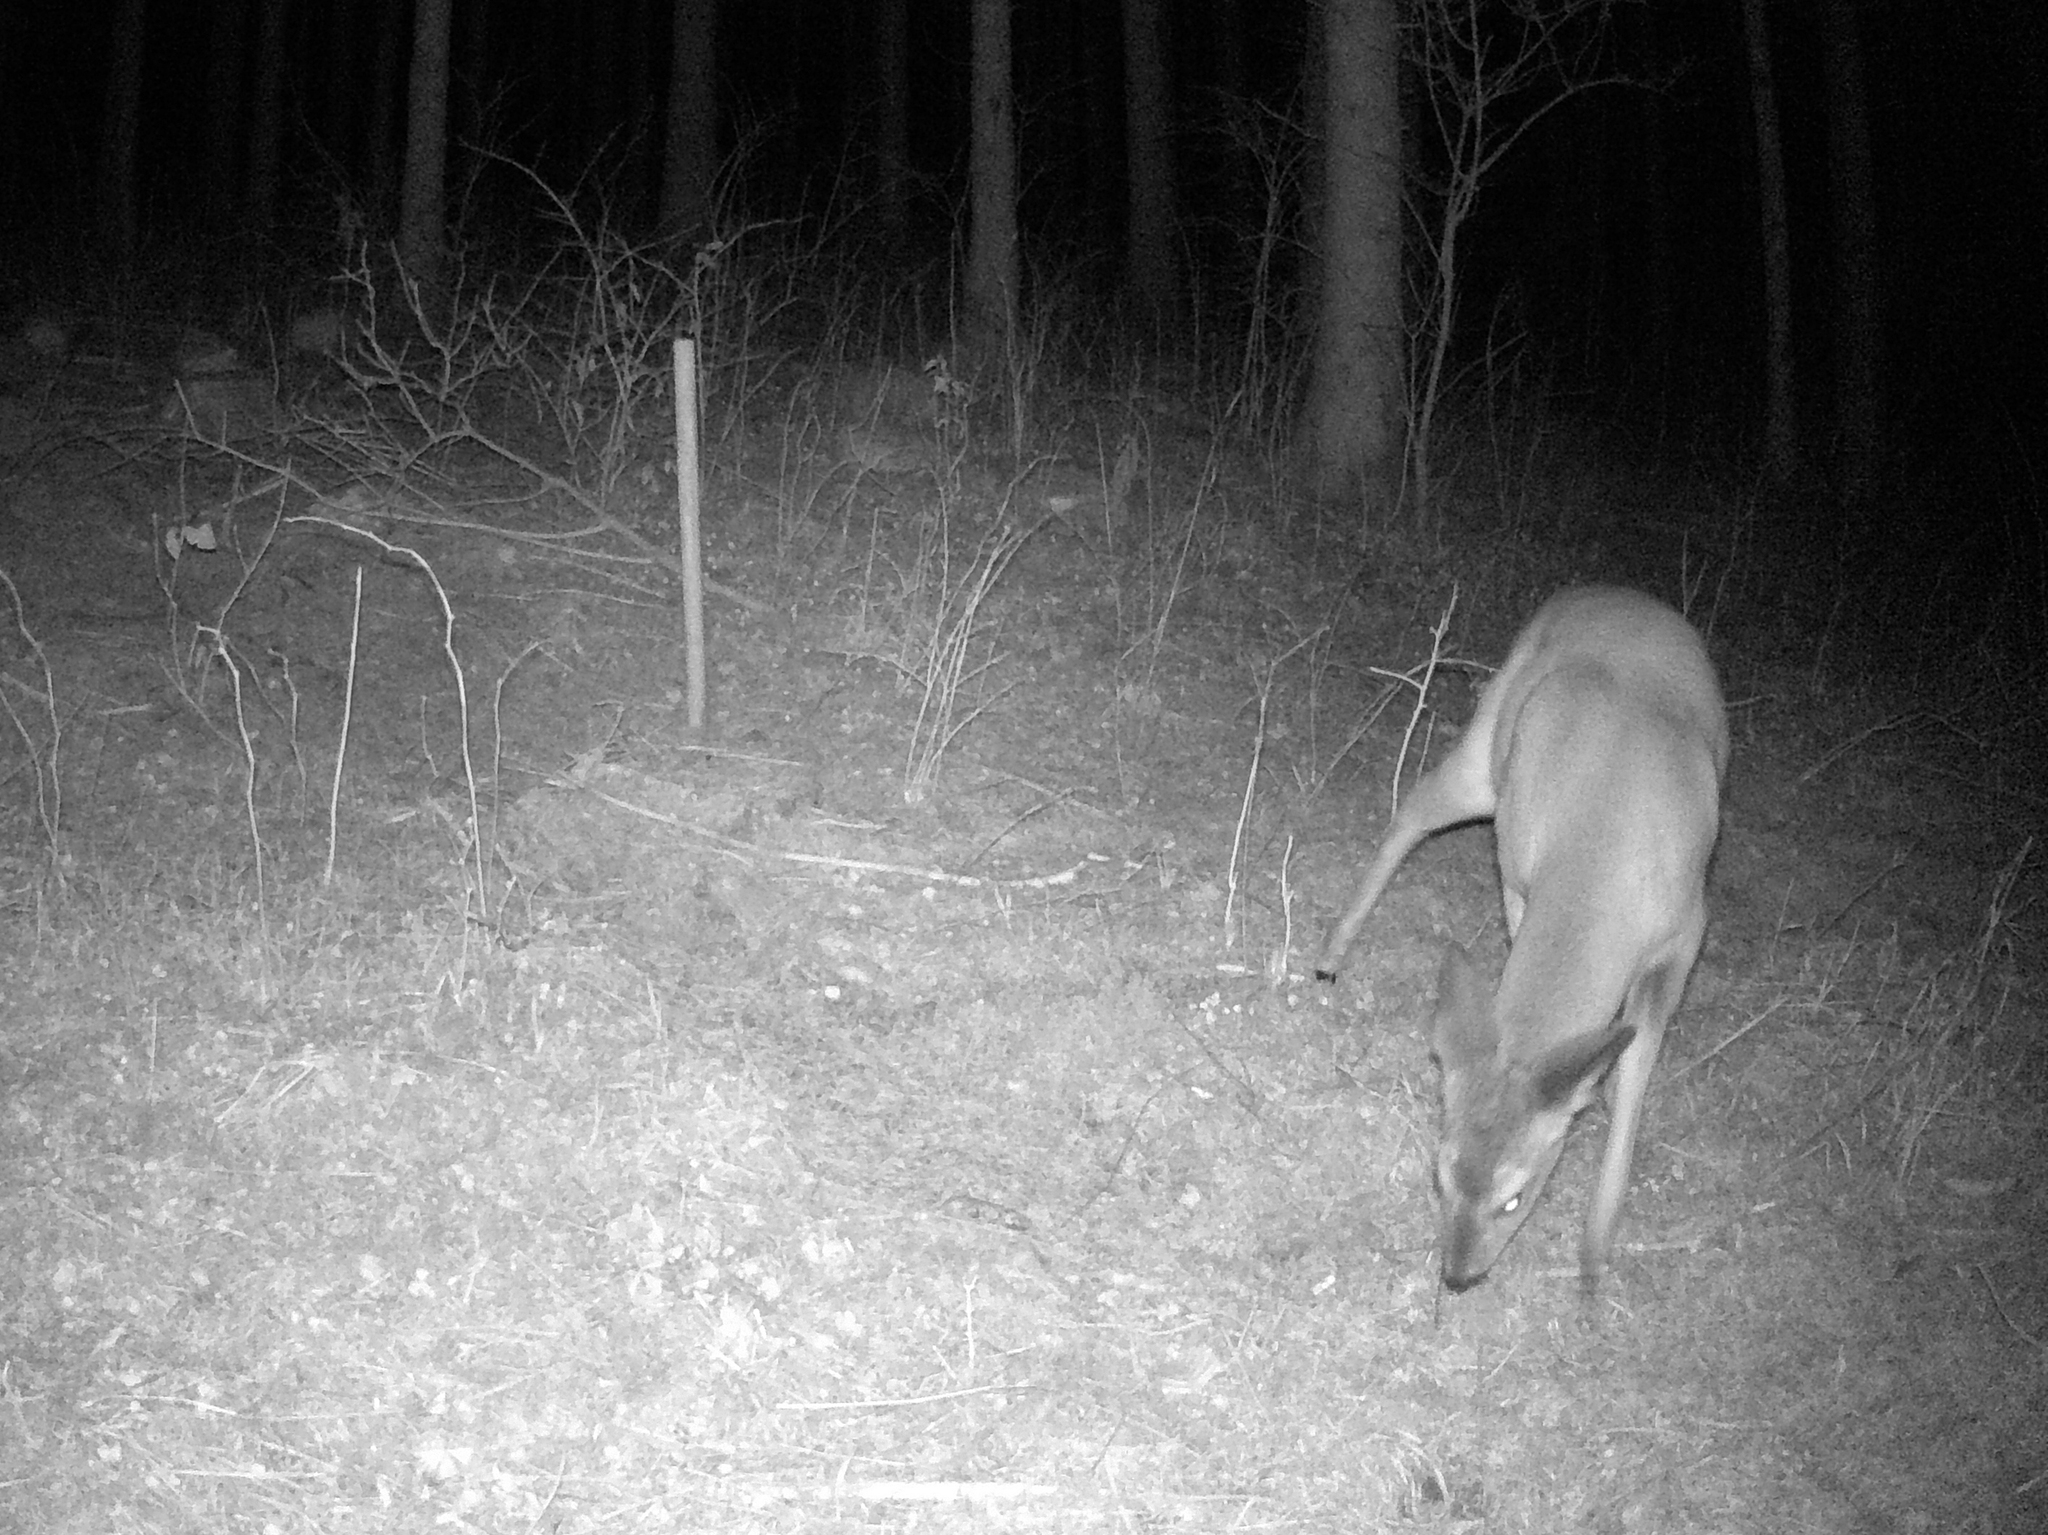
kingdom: Animalia
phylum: Chordata
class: Mammalia
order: Artiodactyla
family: Cervidae
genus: Capreolus
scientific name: Capreolus capreolus
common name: Western roe deer
